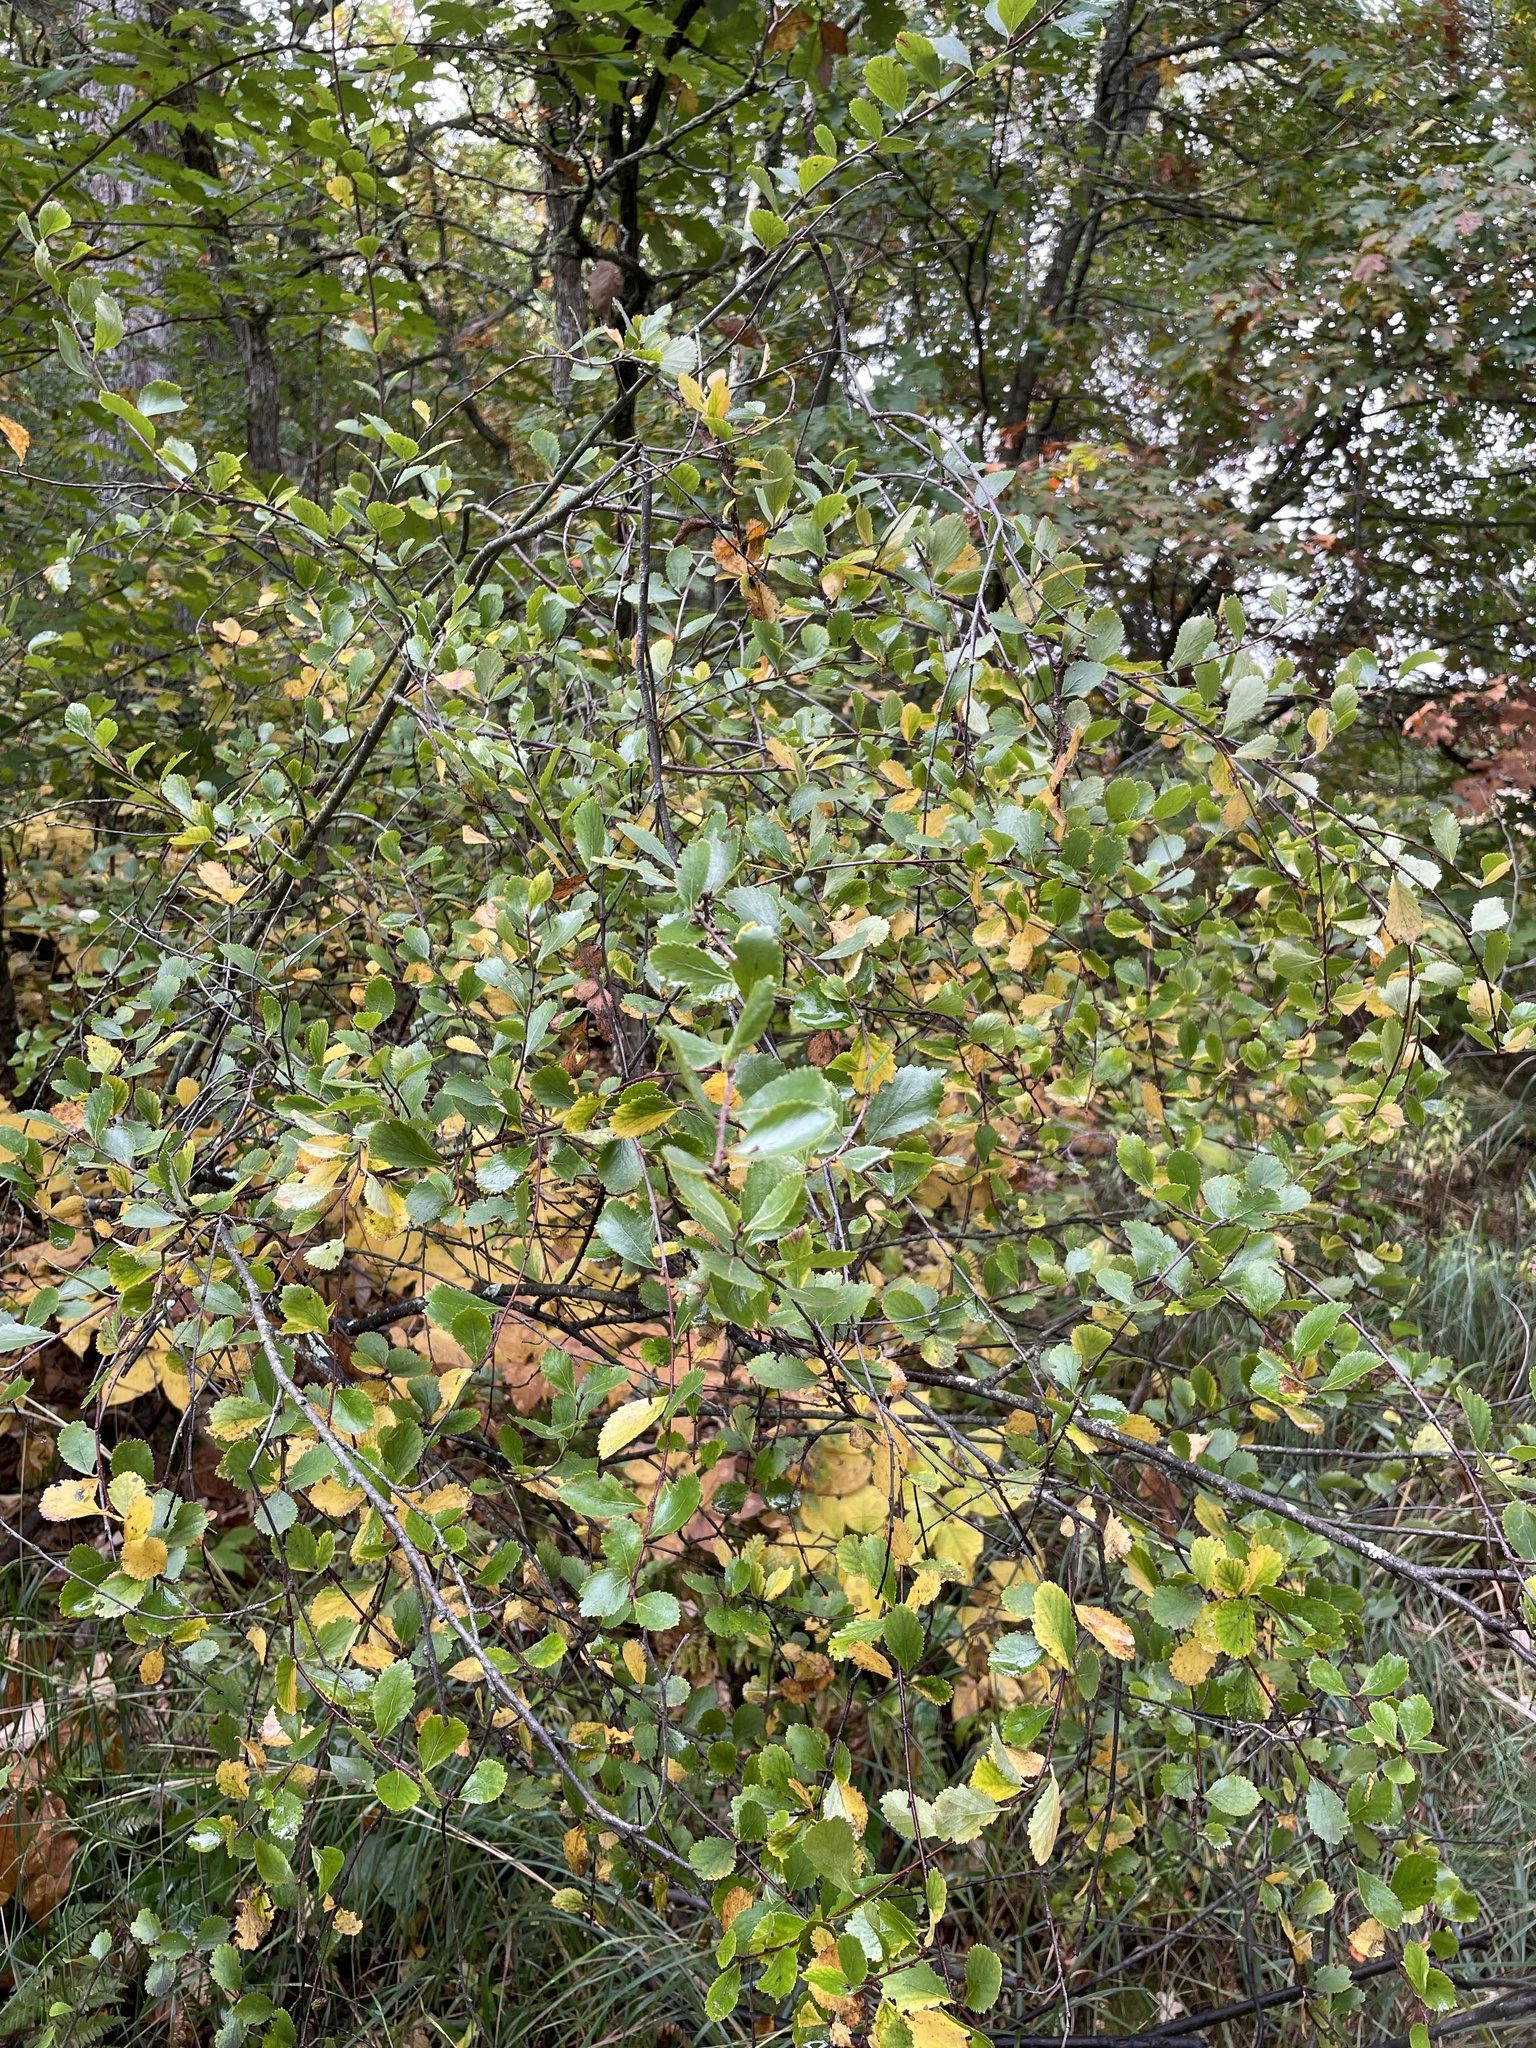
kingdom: Plantae
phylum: Tracheophyta
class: Magnoliopsida
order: Fagales
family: Betulaceae
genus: Betula
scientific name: Betula pumila
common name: Bog birch
